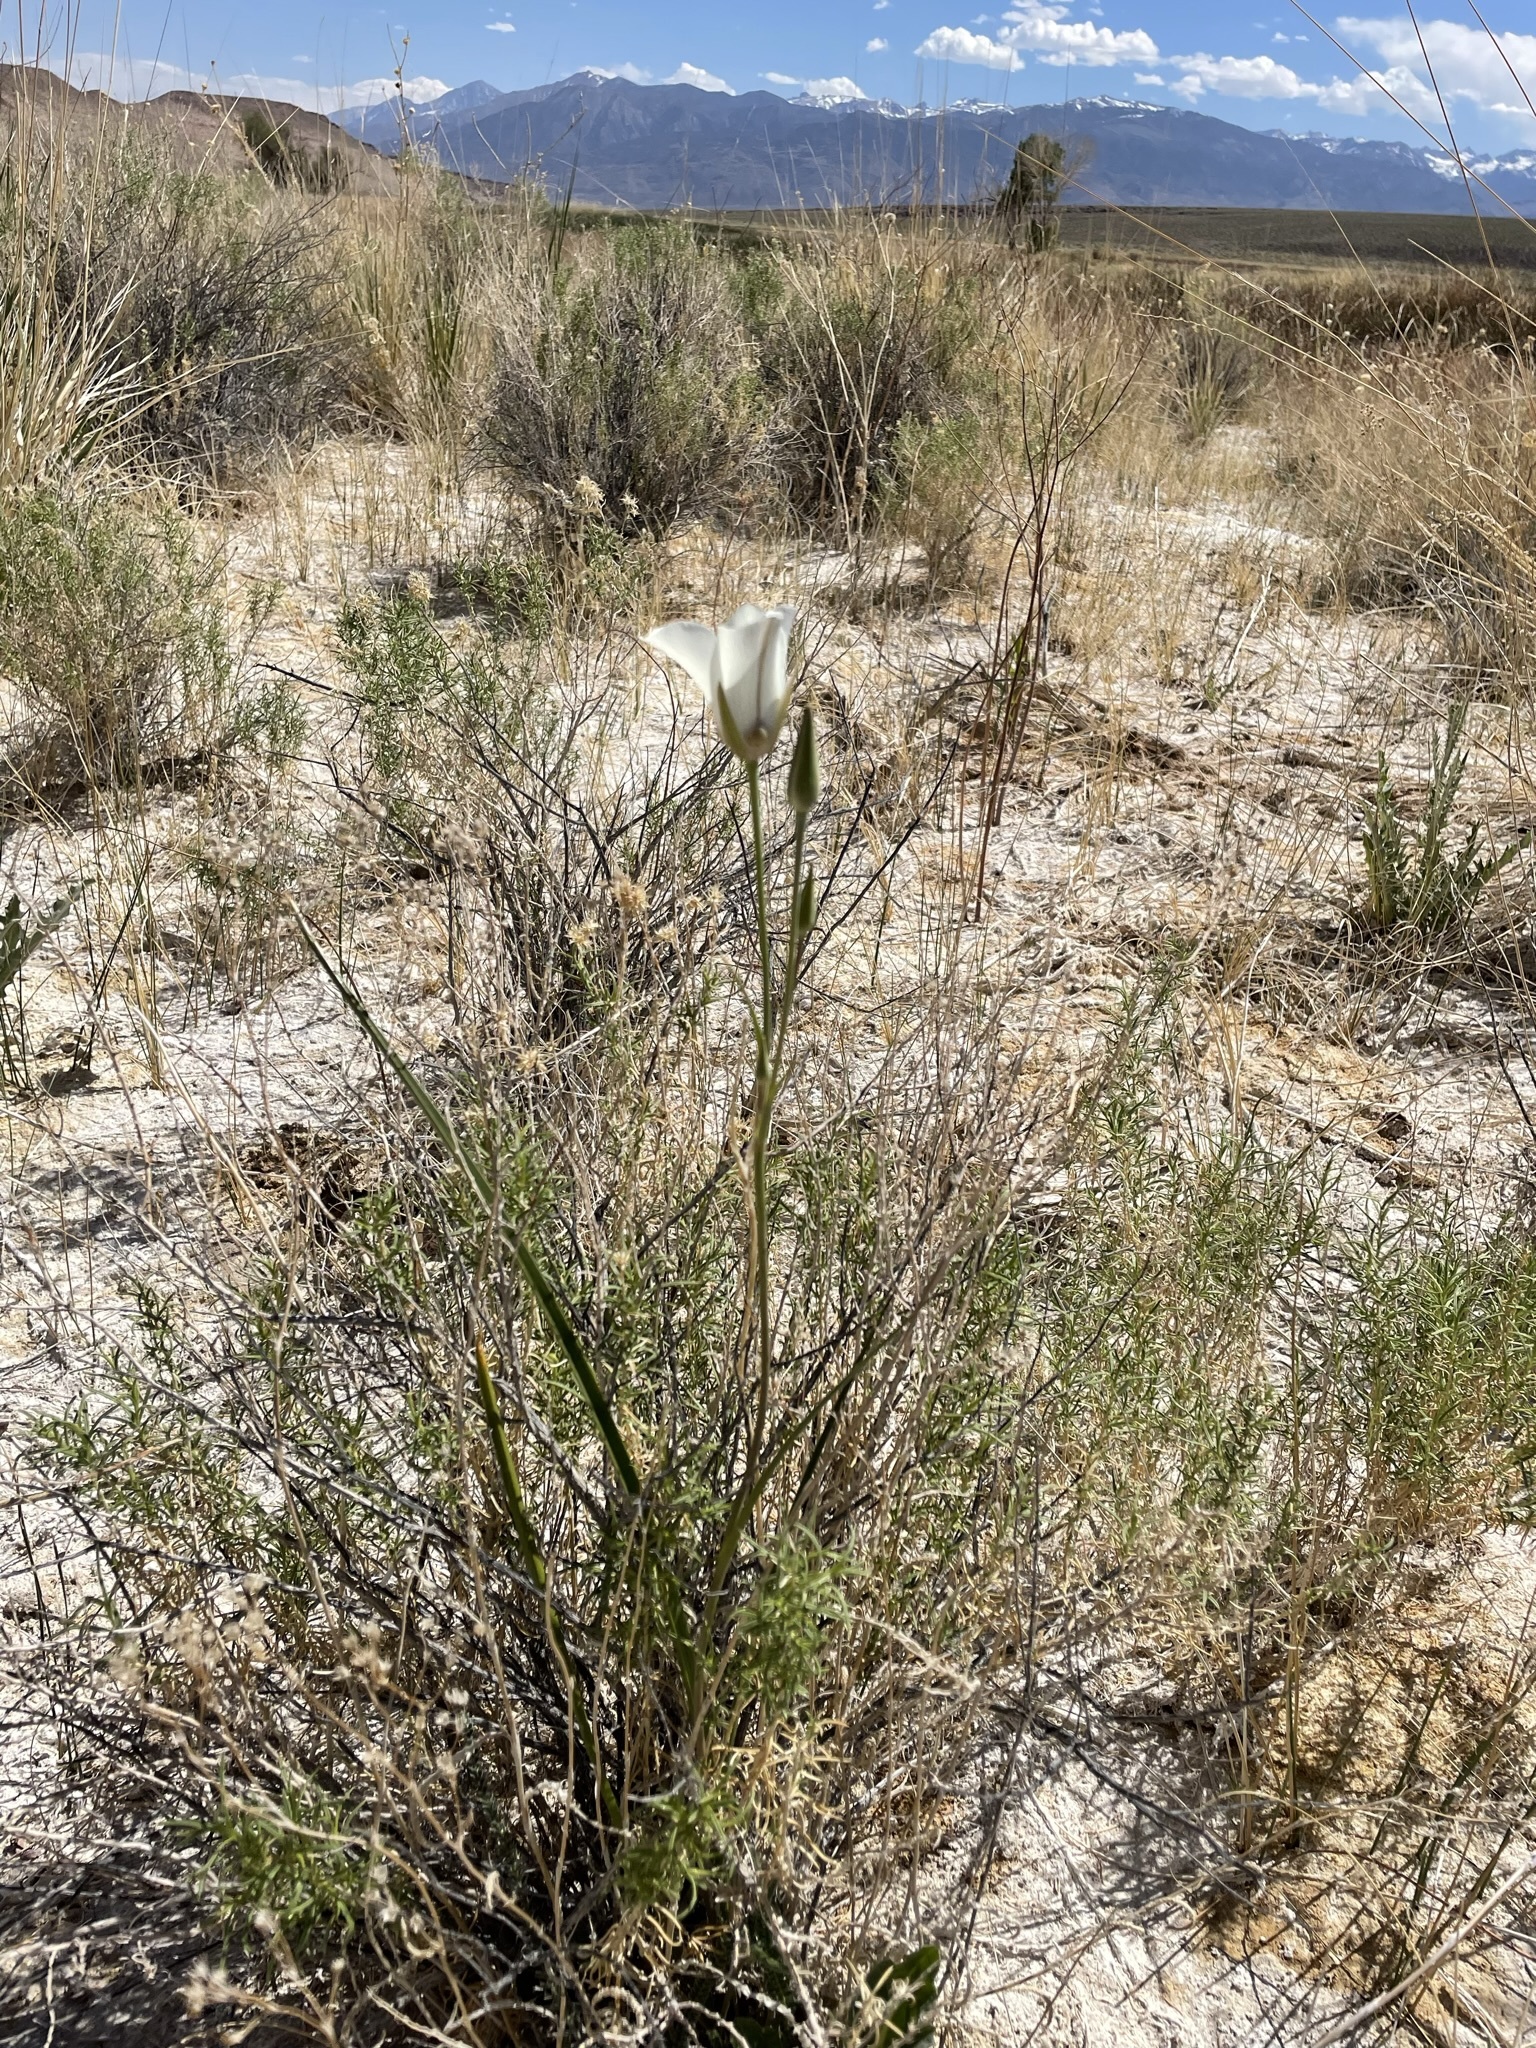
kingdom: Plantae
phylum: Tracheophyta
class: Liliopsida
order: Liliales
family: Liliaceae
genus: Calochortus
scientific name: Calochortus excavatus
